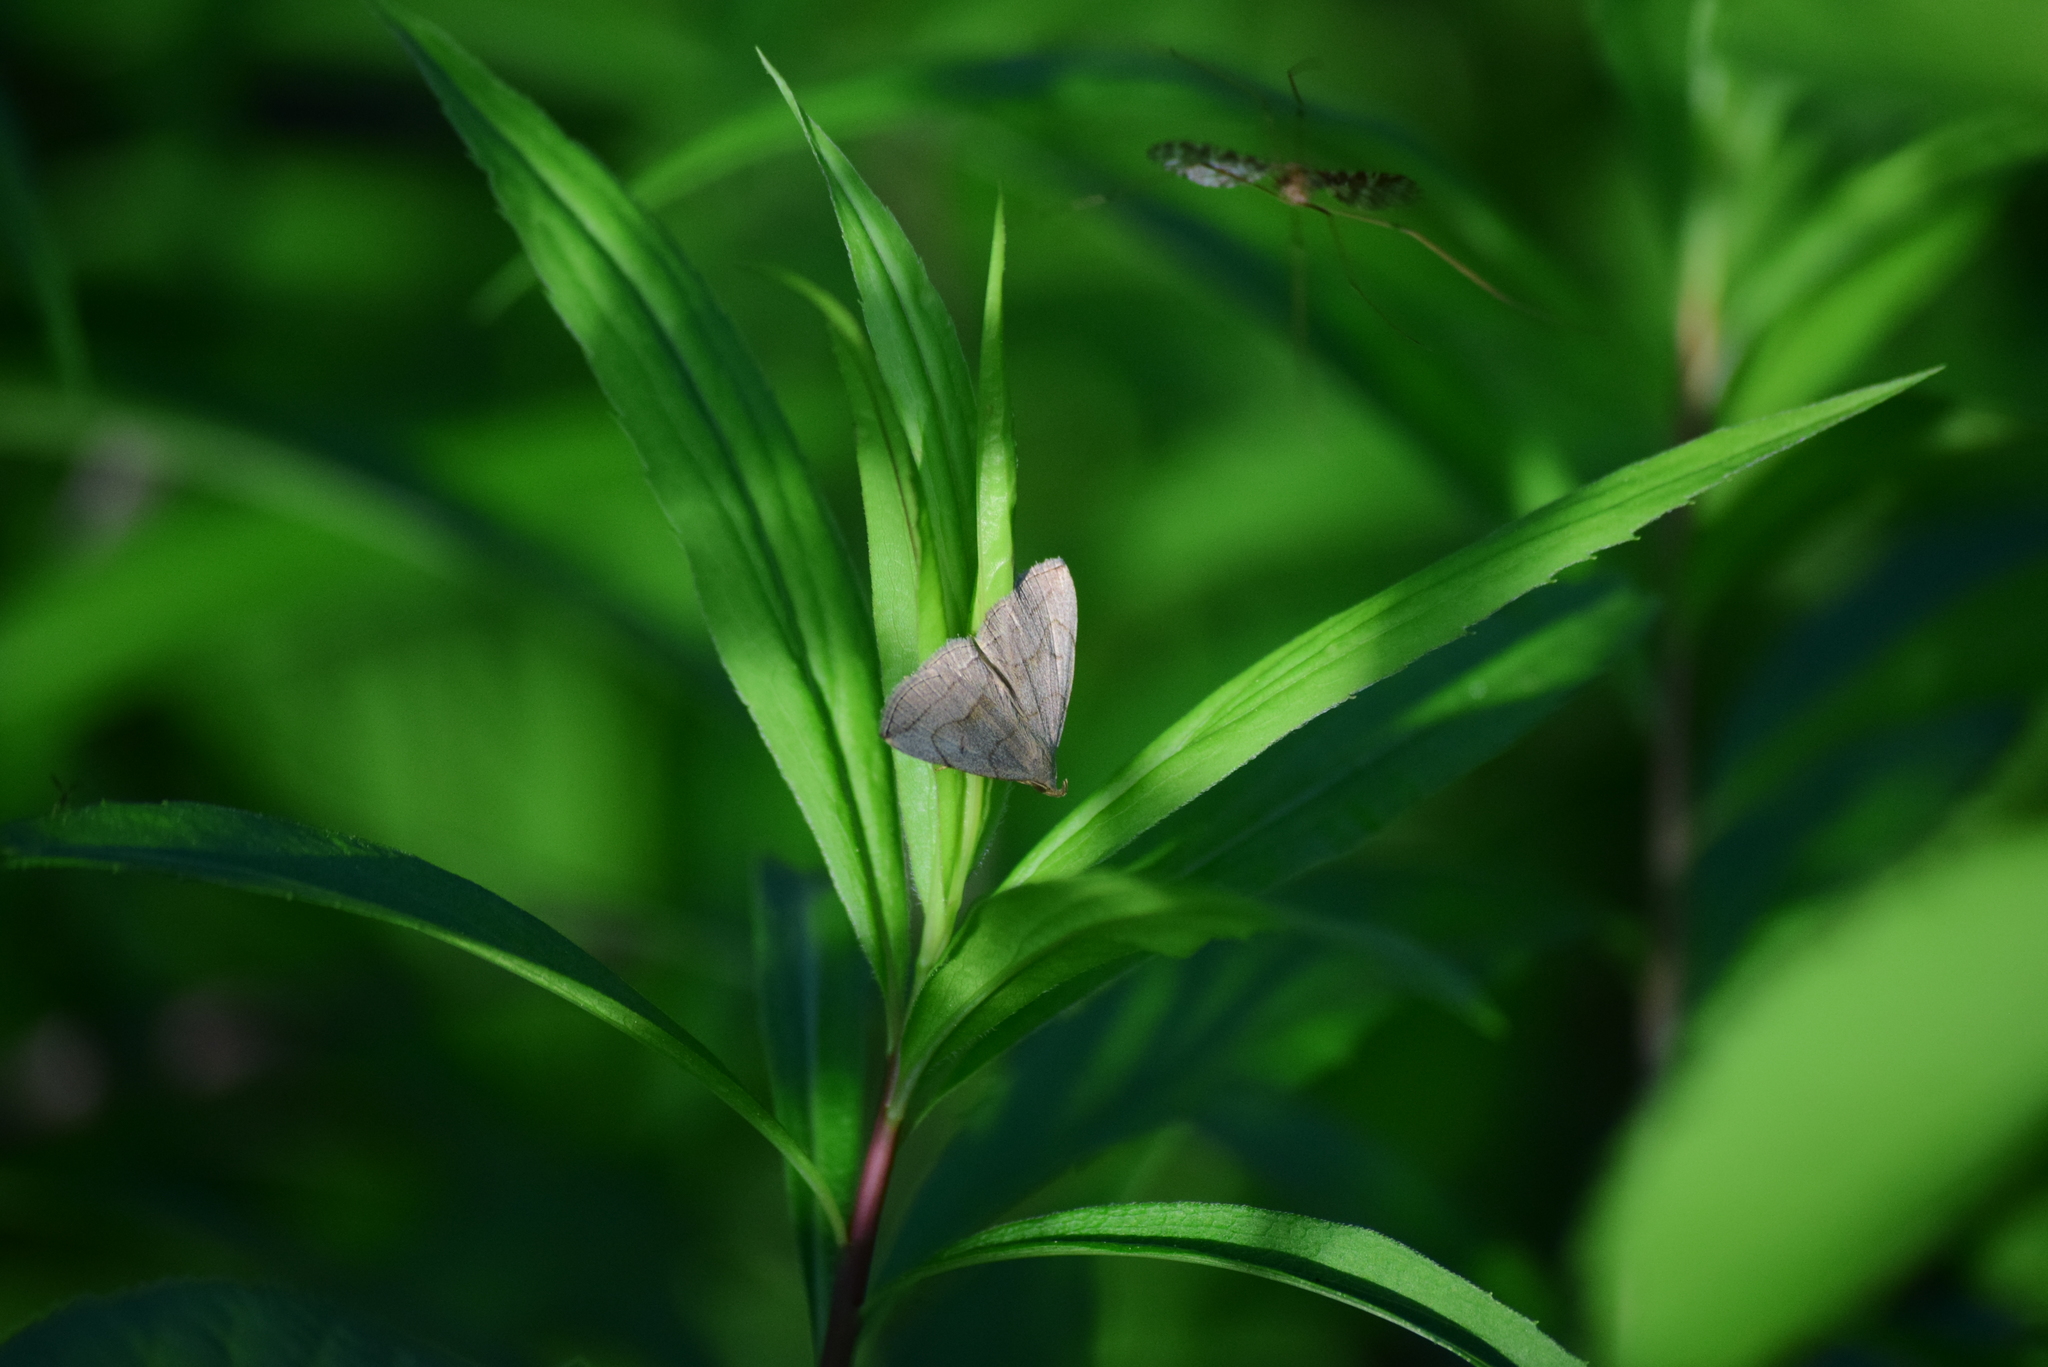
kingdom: Animalia
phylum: Arthropoda
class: Insecta
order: Lepidoptera
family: Erebidae
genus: Zanclognatha
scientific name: Zanclognatha pedipilalis
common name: Grayish fan-foot
